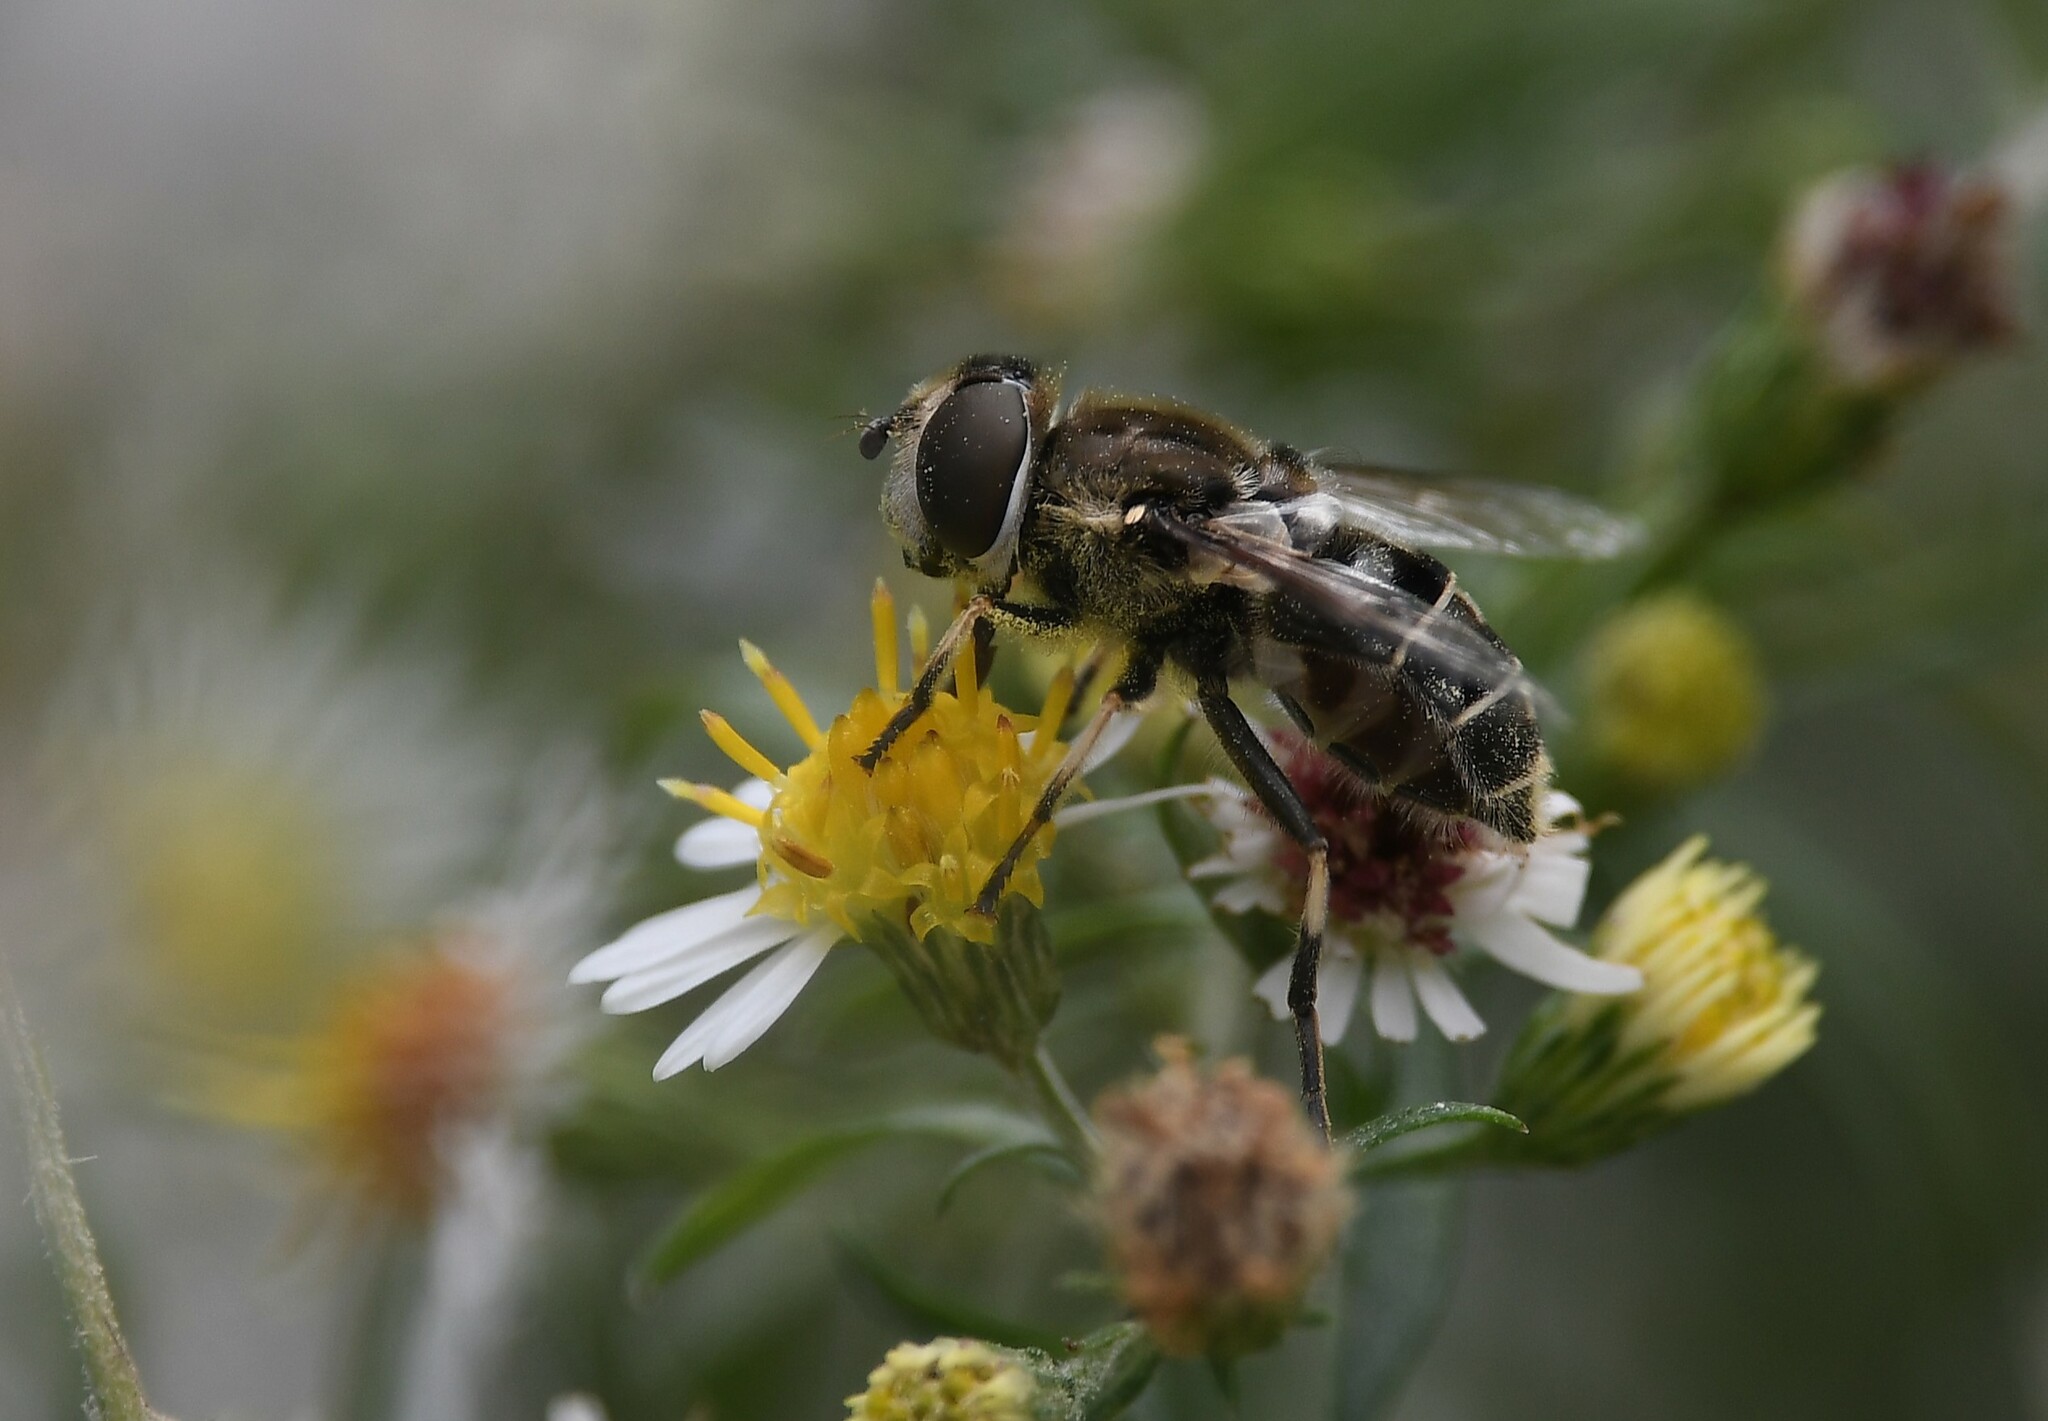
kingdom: Animalia
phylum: Arthropoda
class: Insecta
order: Diptera
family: Syrphidae
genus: Eristalis
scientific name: Eristalis dimidiata
